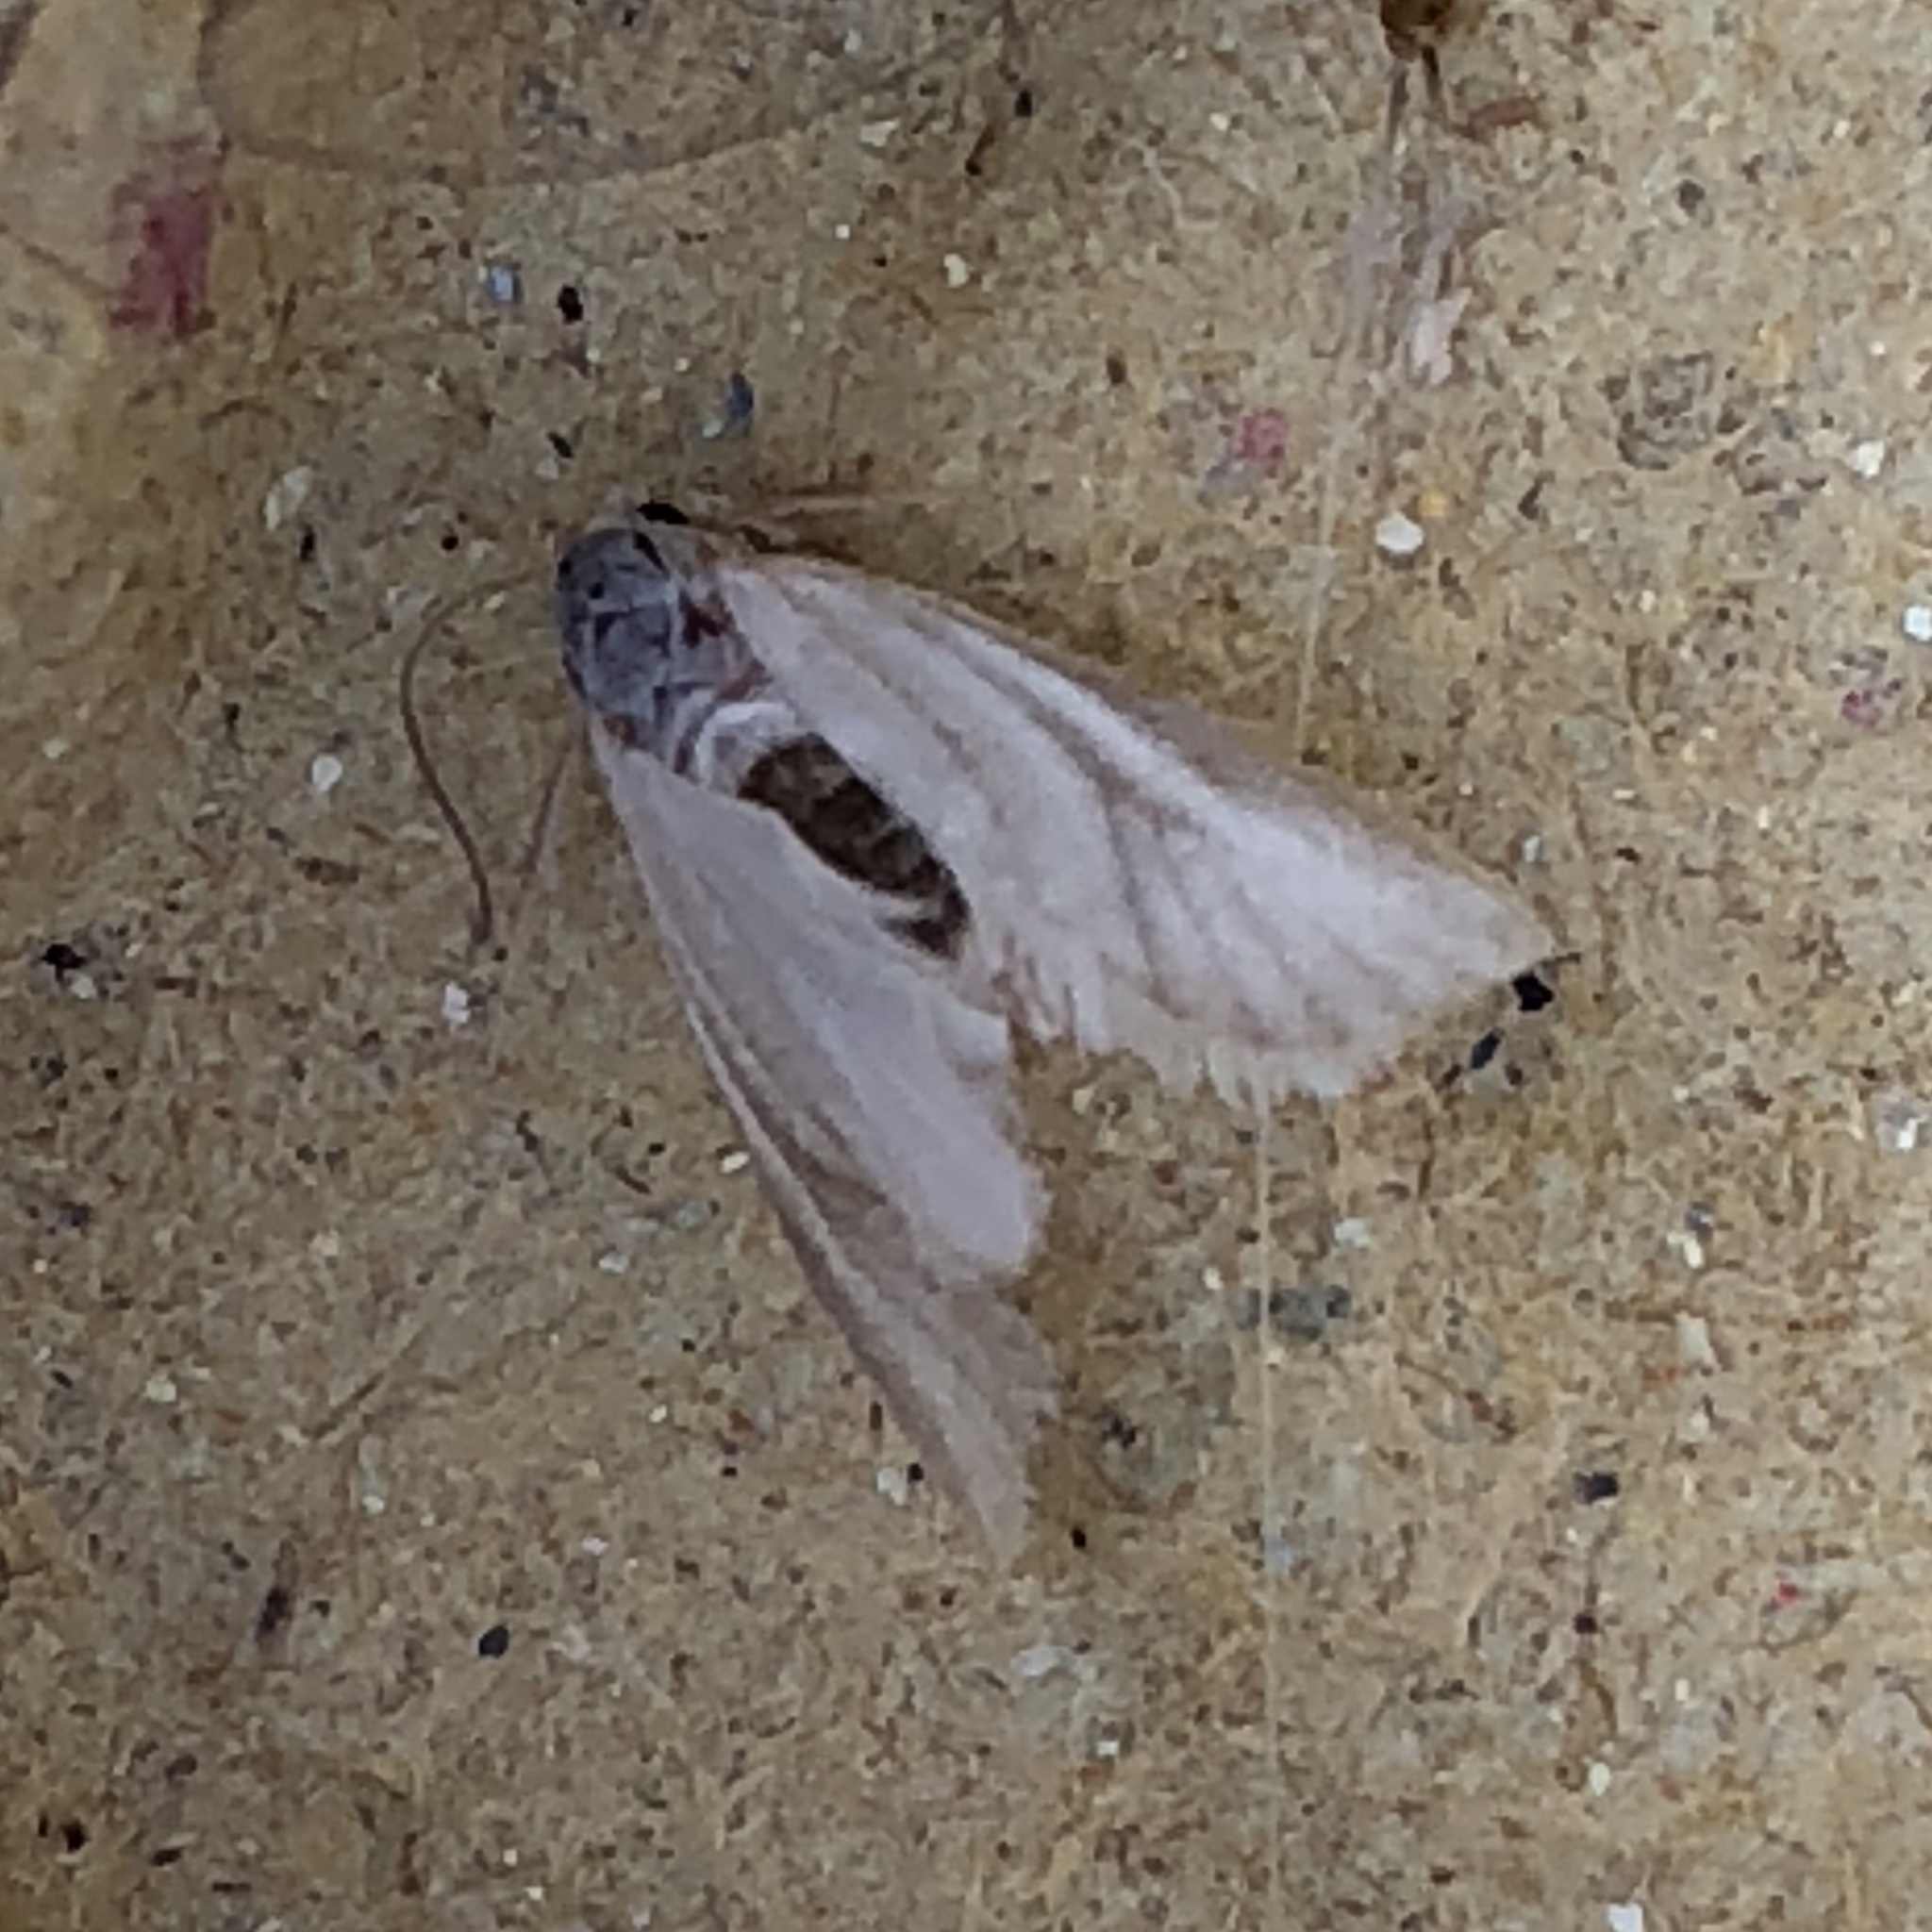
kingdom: Animalia
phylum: Arthropoda
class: Insecta
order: Lepidoptera
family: Crambidae
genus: Acentria
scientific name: Acentria ephemerella
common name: European water moth
